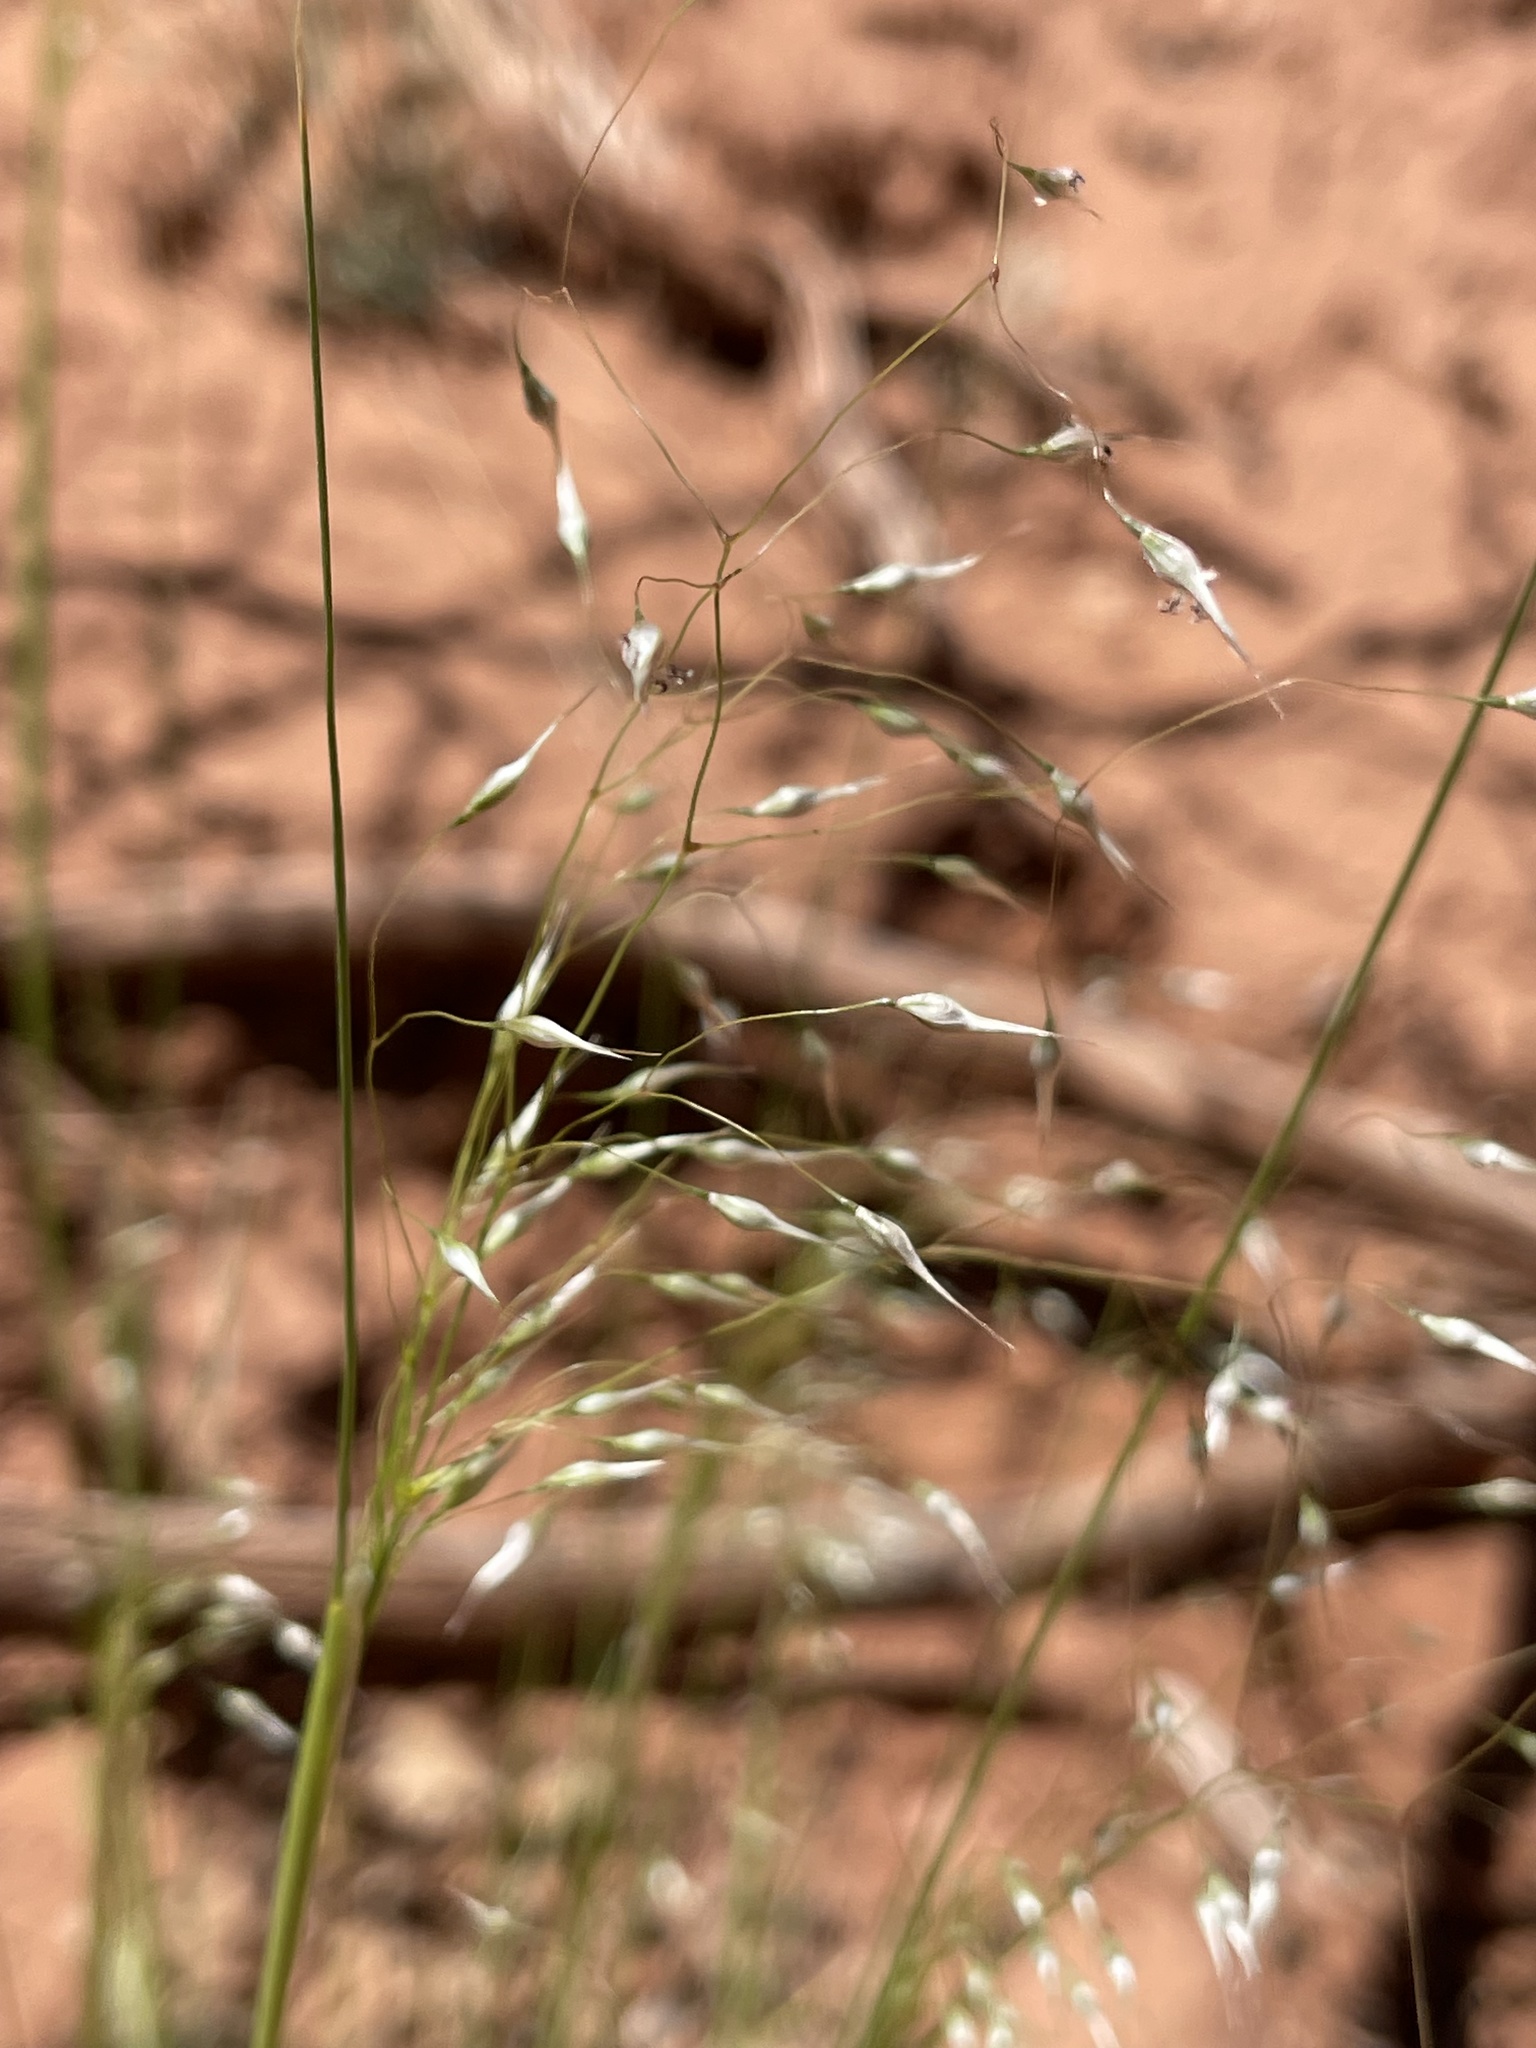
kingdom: Plantae
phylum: Tracheophyta
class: Liliopsida
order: Poales
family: Poaceae
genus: Eriocoma
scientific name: Eriocoma hymenoides
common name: Indian mountain ricegrass
